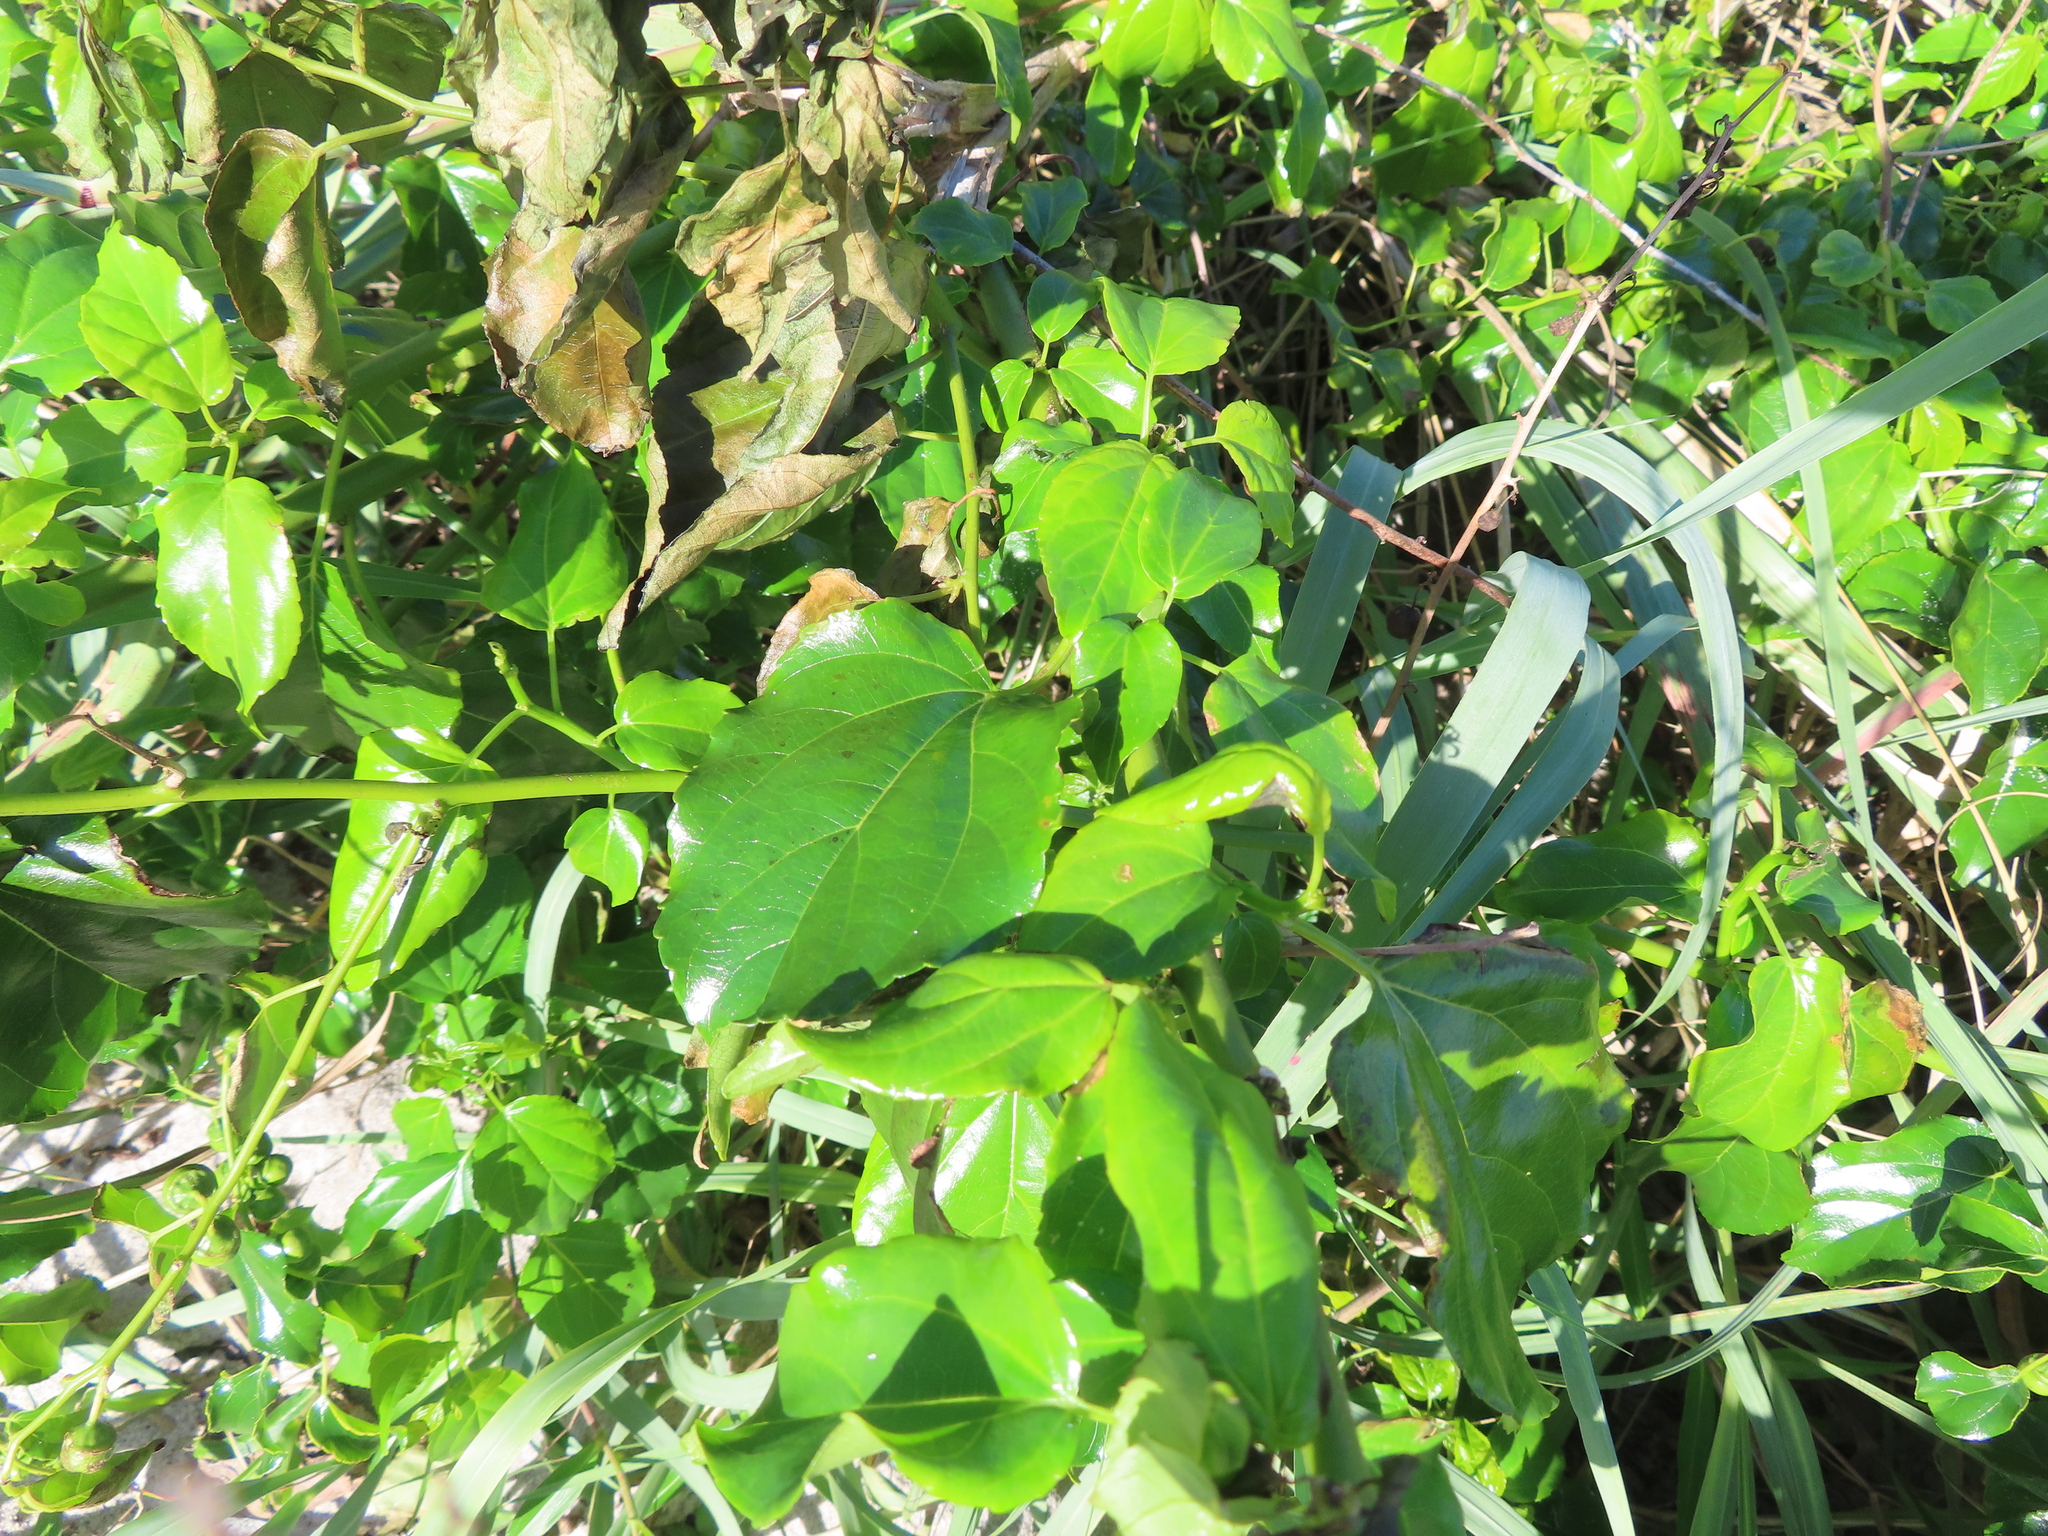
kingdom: Plantae
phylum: Tracheophyta
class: Magnoliopsida
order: Rosales
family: Rhamnaceae
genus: Colubrina
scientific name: Colubrina asiatica
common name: Asian nakedwood
